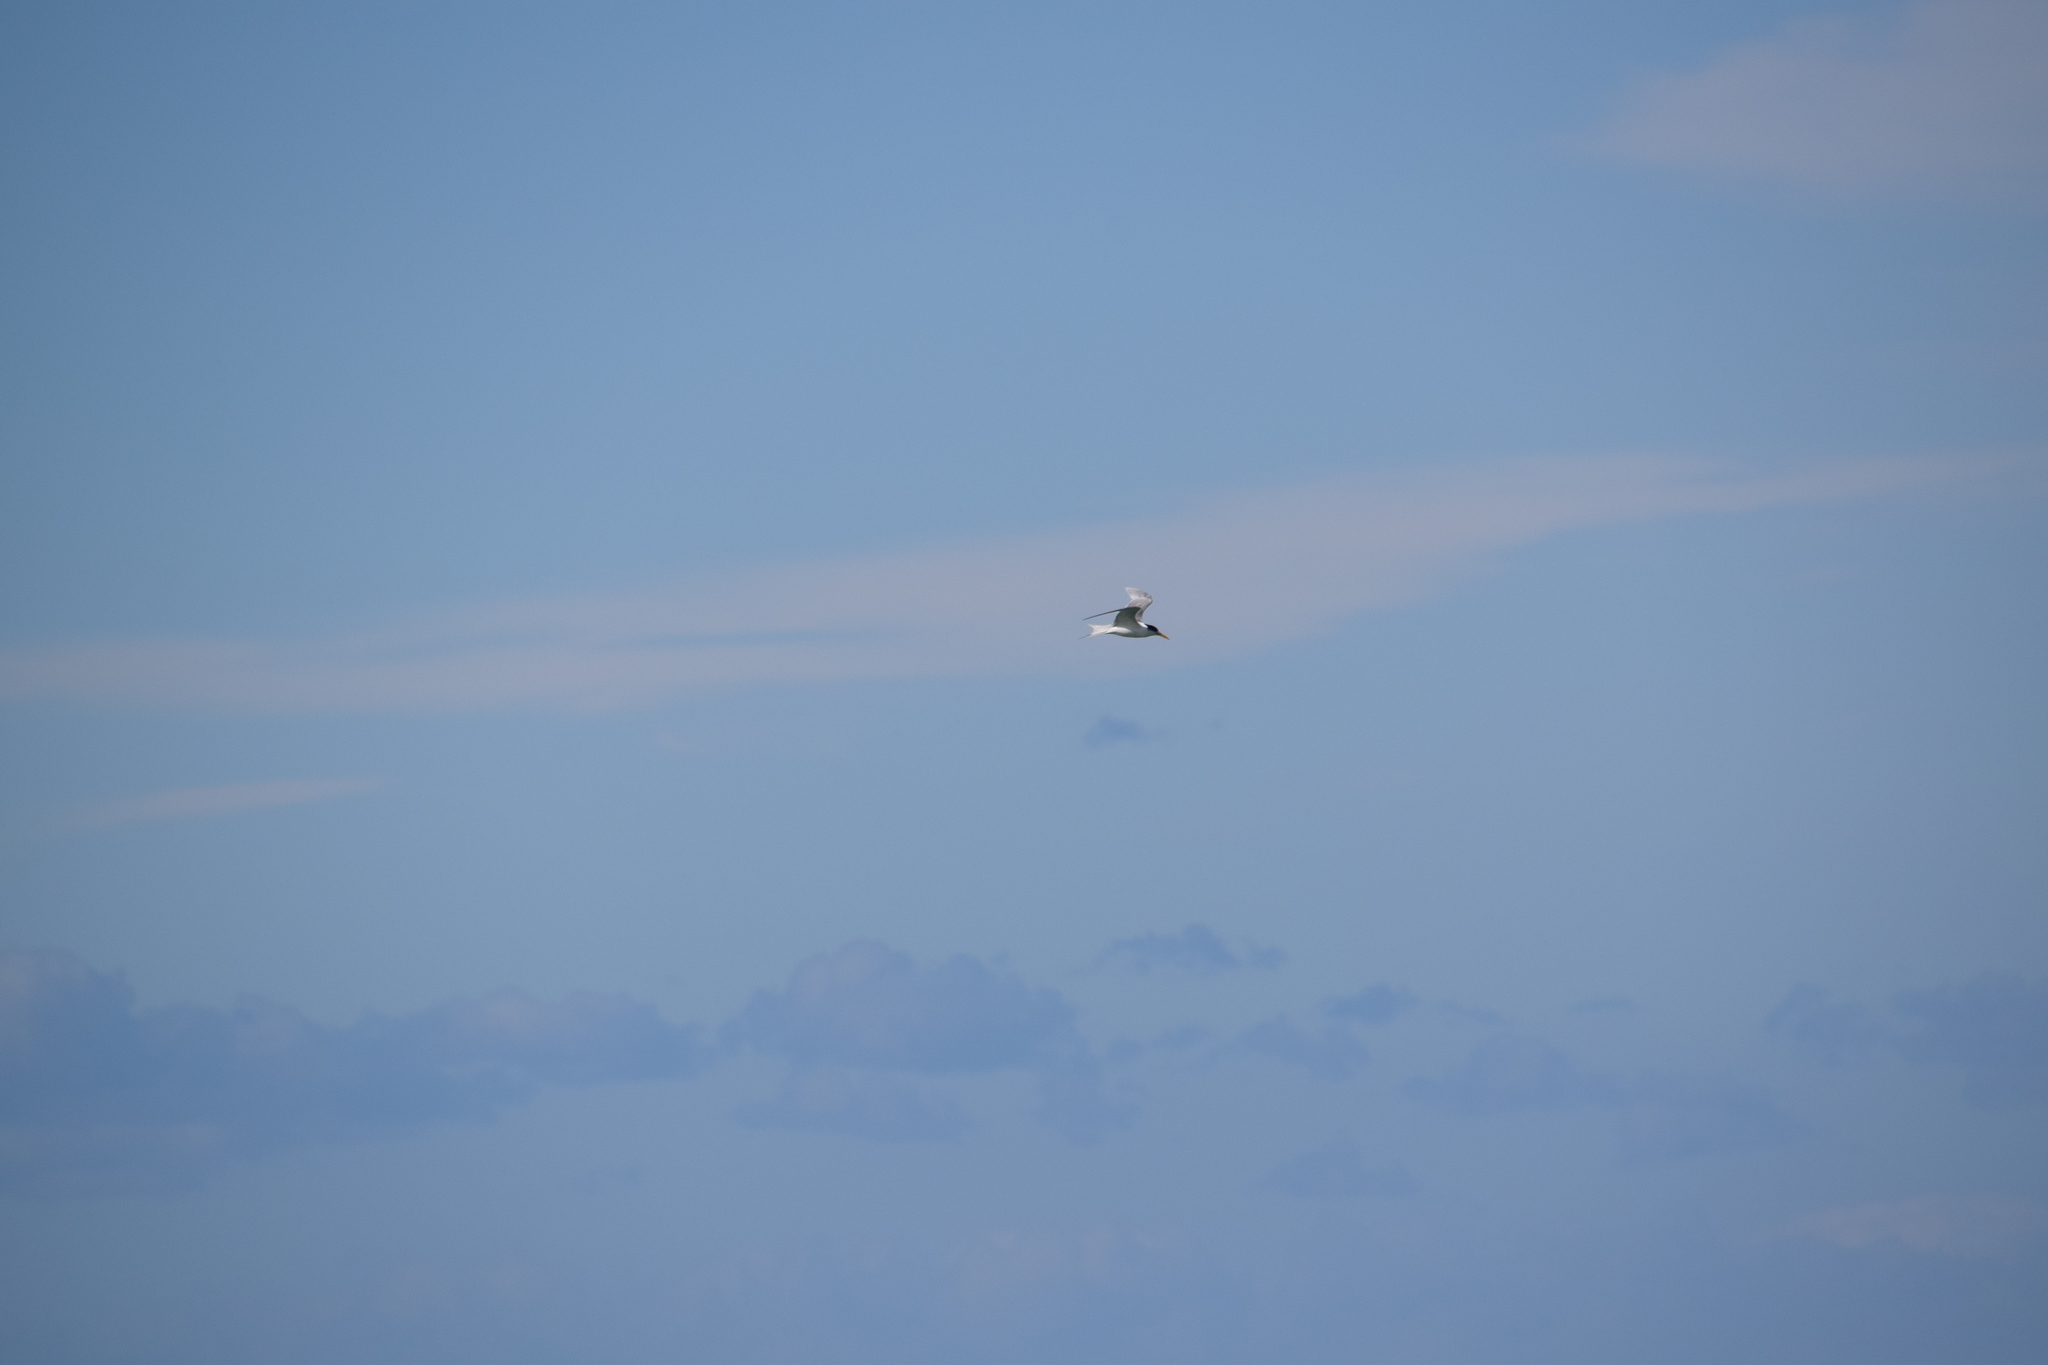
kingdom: Animalia
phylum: Chordata
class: Aves
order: Charadriiformes
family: Laridae
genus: Thalasseus
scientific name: Thalasseus bergii
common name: Greater crested tern
